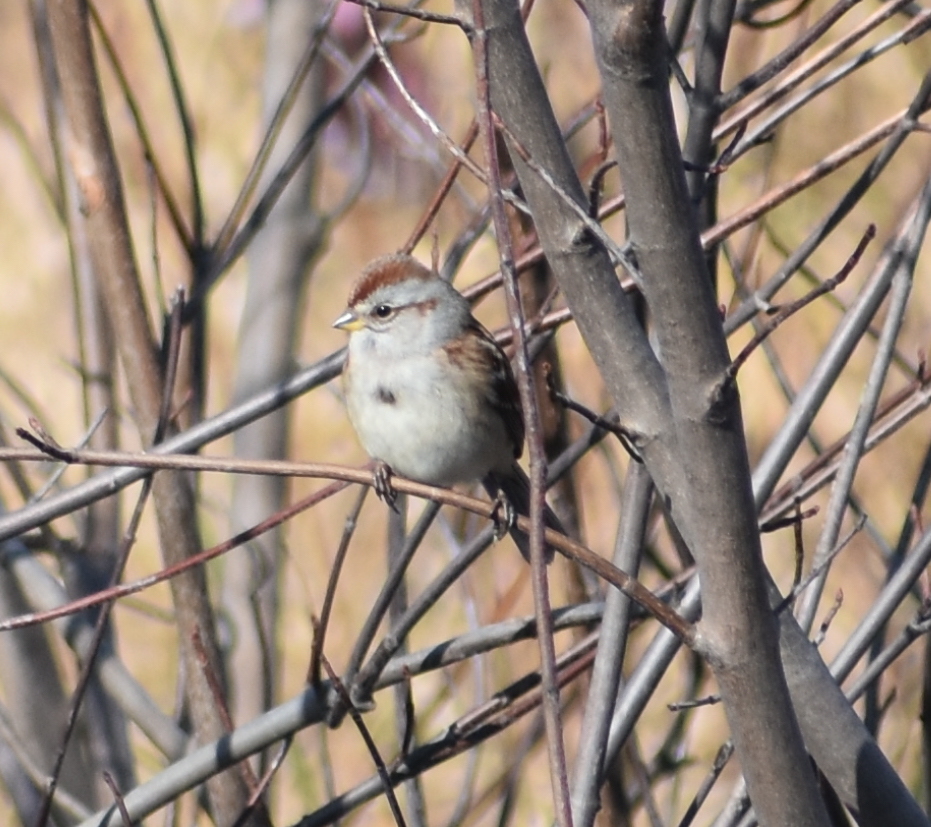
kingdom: Animalia
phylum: Chordata
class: Aves
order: Passeriformes
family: Passerellidae
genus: Spizelloides
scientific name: Spizelloides arborea
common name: American tree sparrow
